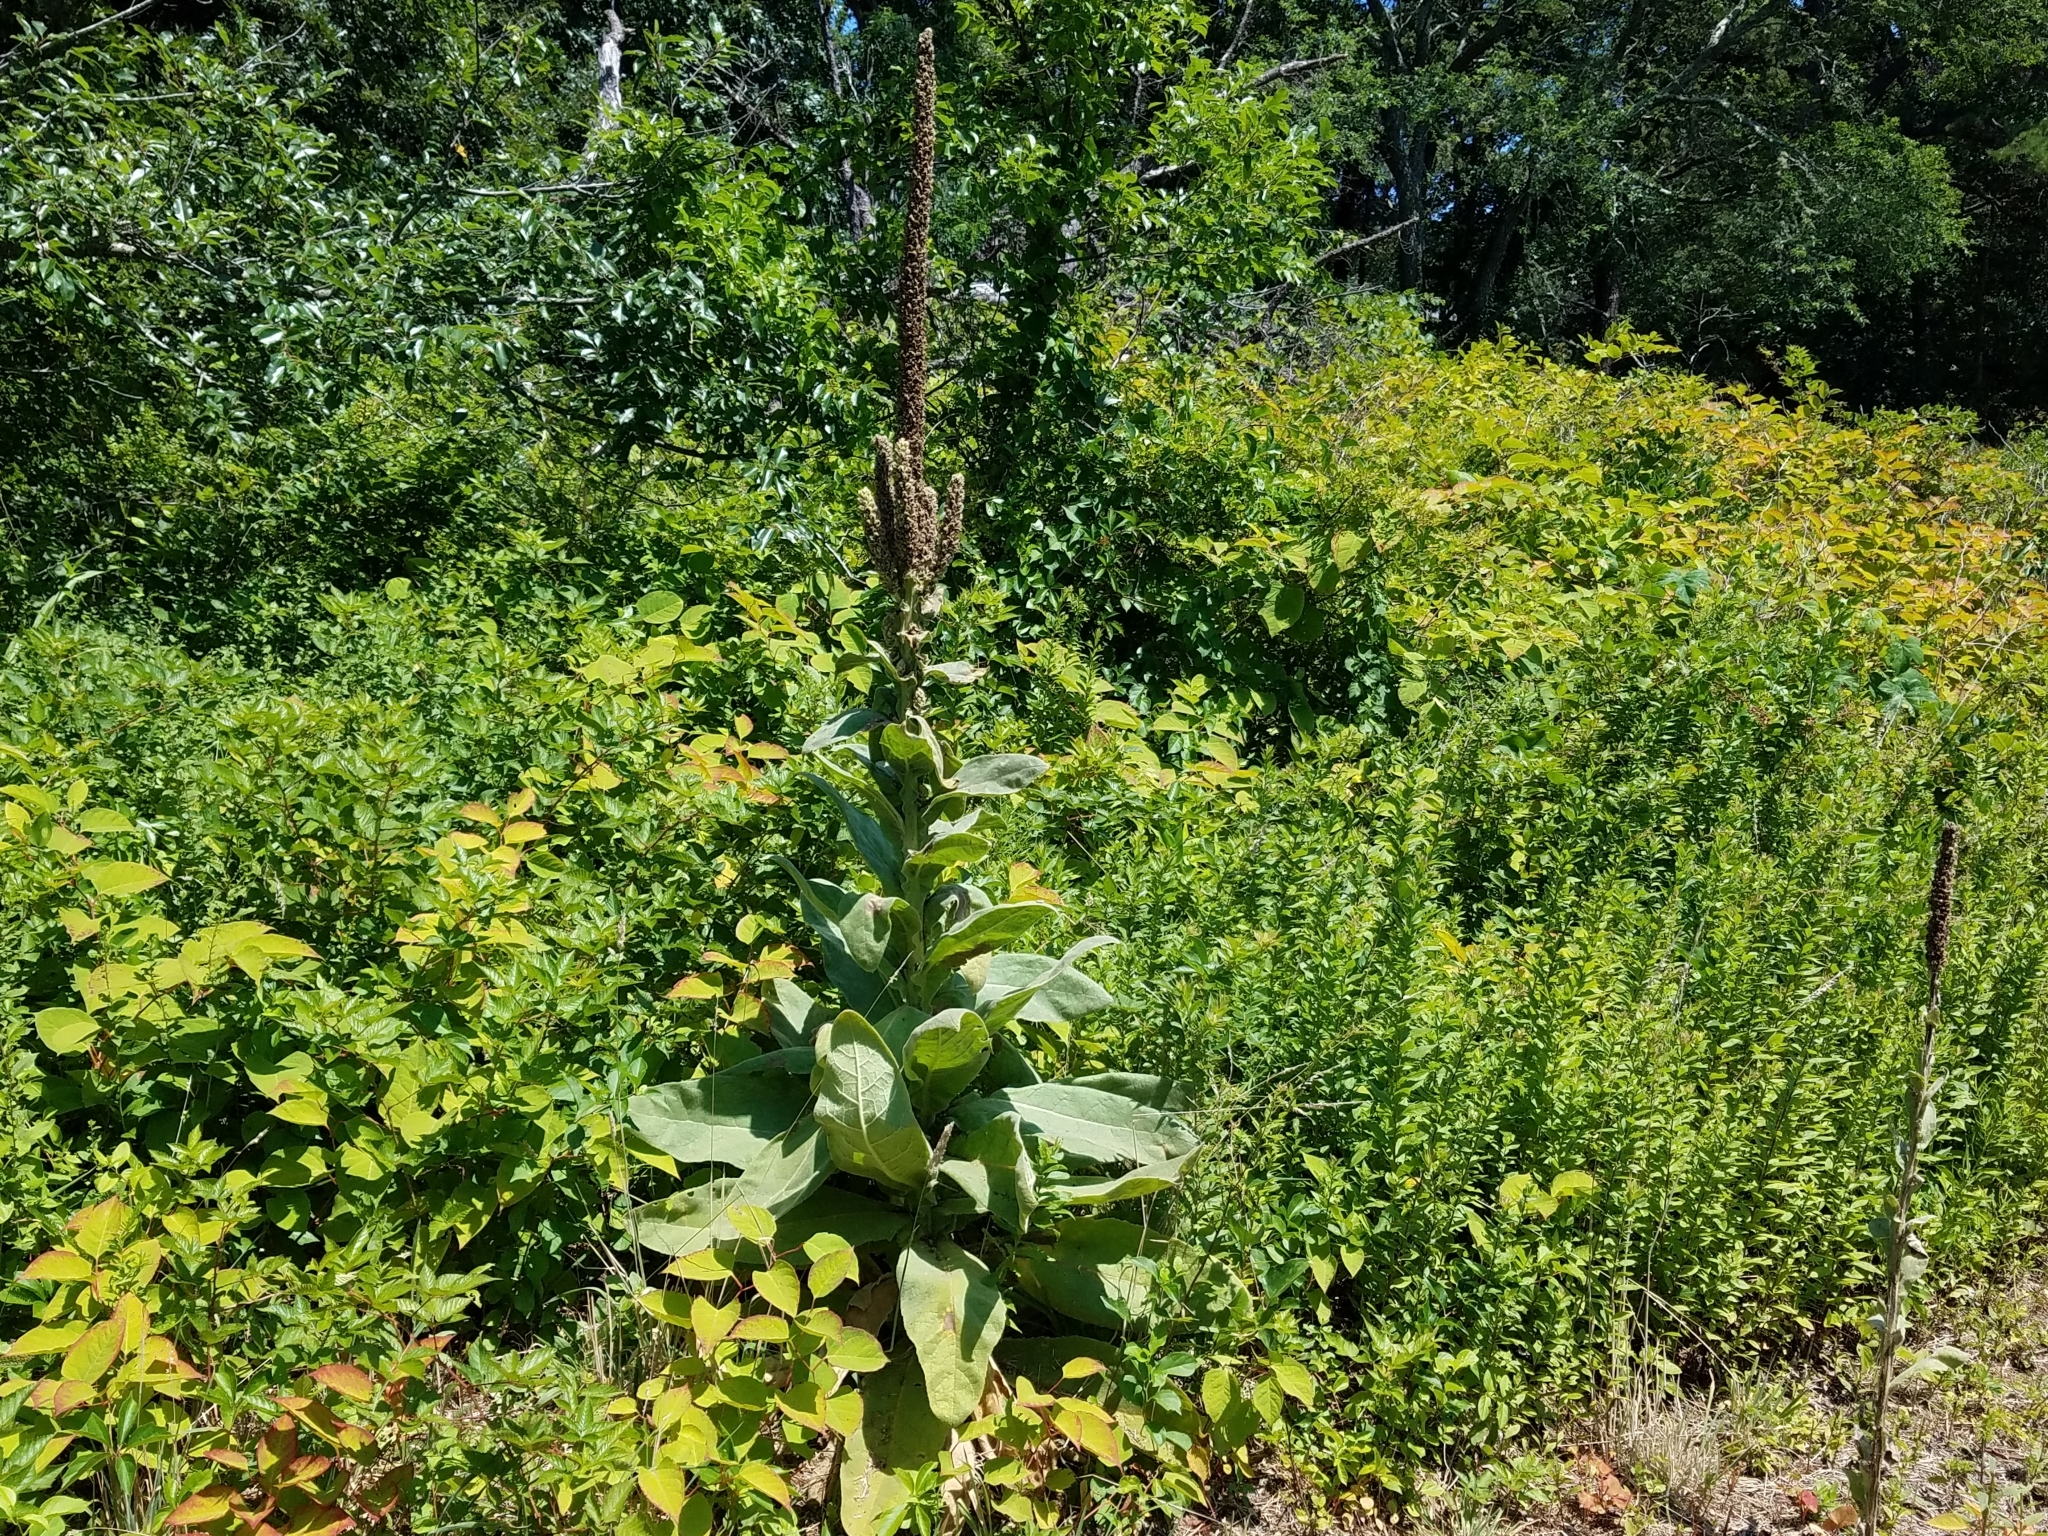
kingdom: Plantae
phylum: Tracheophyta
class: Magnoliopsida
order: Lamiales
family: Scrophulariaceae
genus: Verbascum
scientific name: Verbascum thapsus
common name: Common mullein
